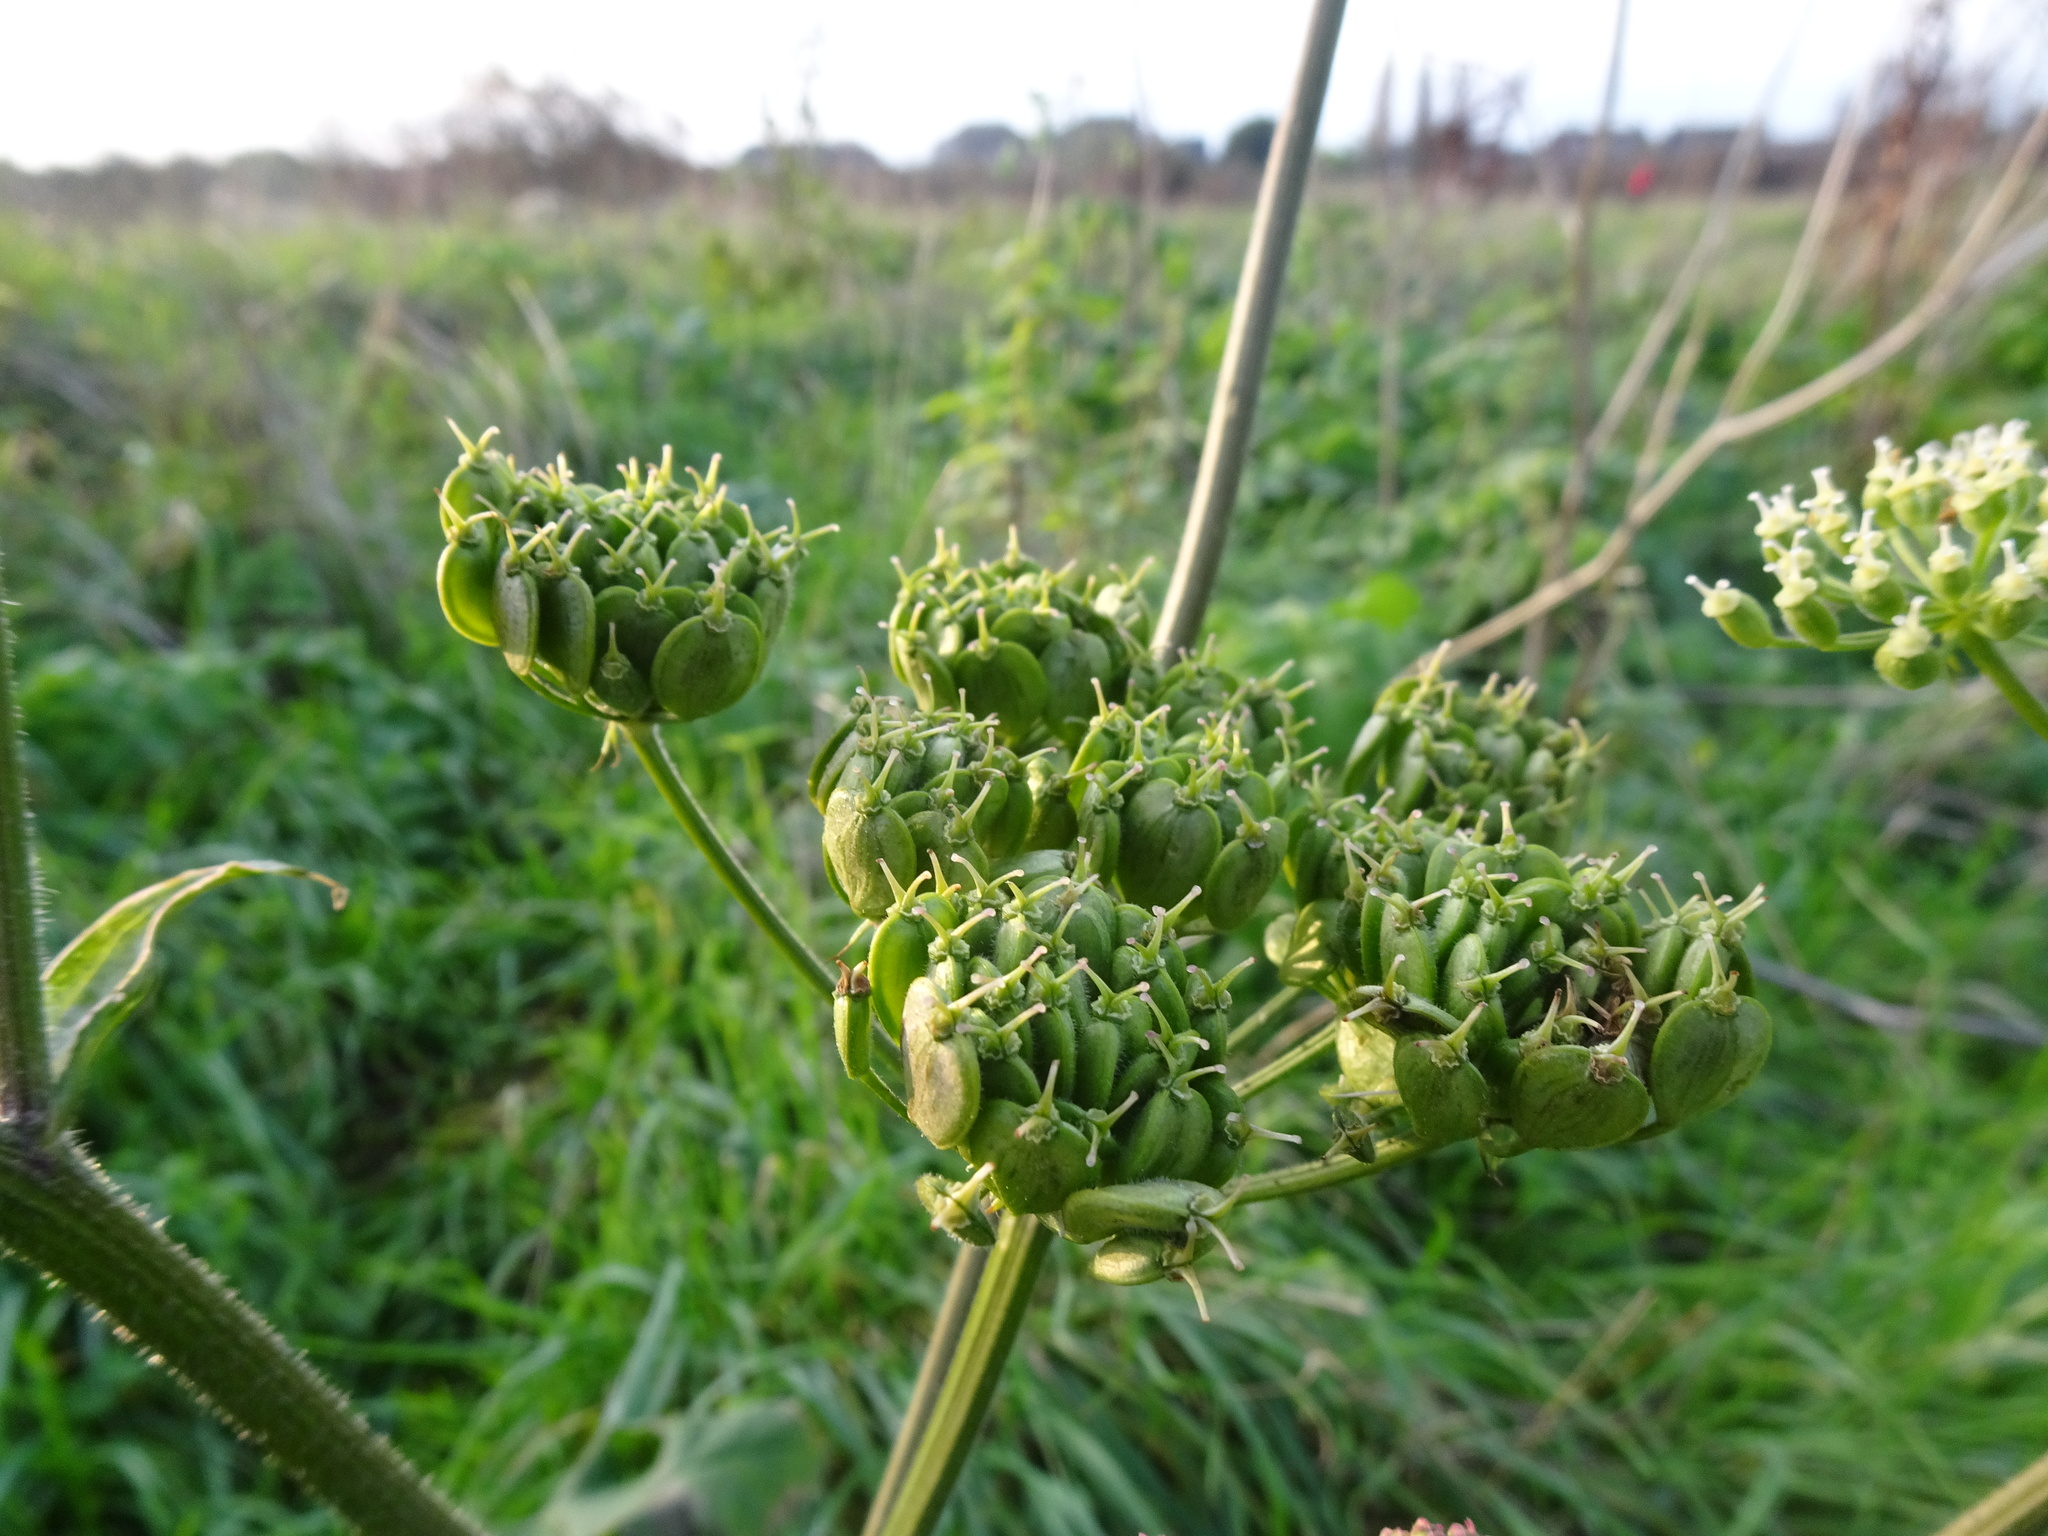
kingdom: Plantae
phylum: Tracheophyta
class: Magnoliopsida
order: Apiales
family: Apiaceae
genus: Heracleum
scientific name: Heracleum sphondylium
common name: Hogweed
